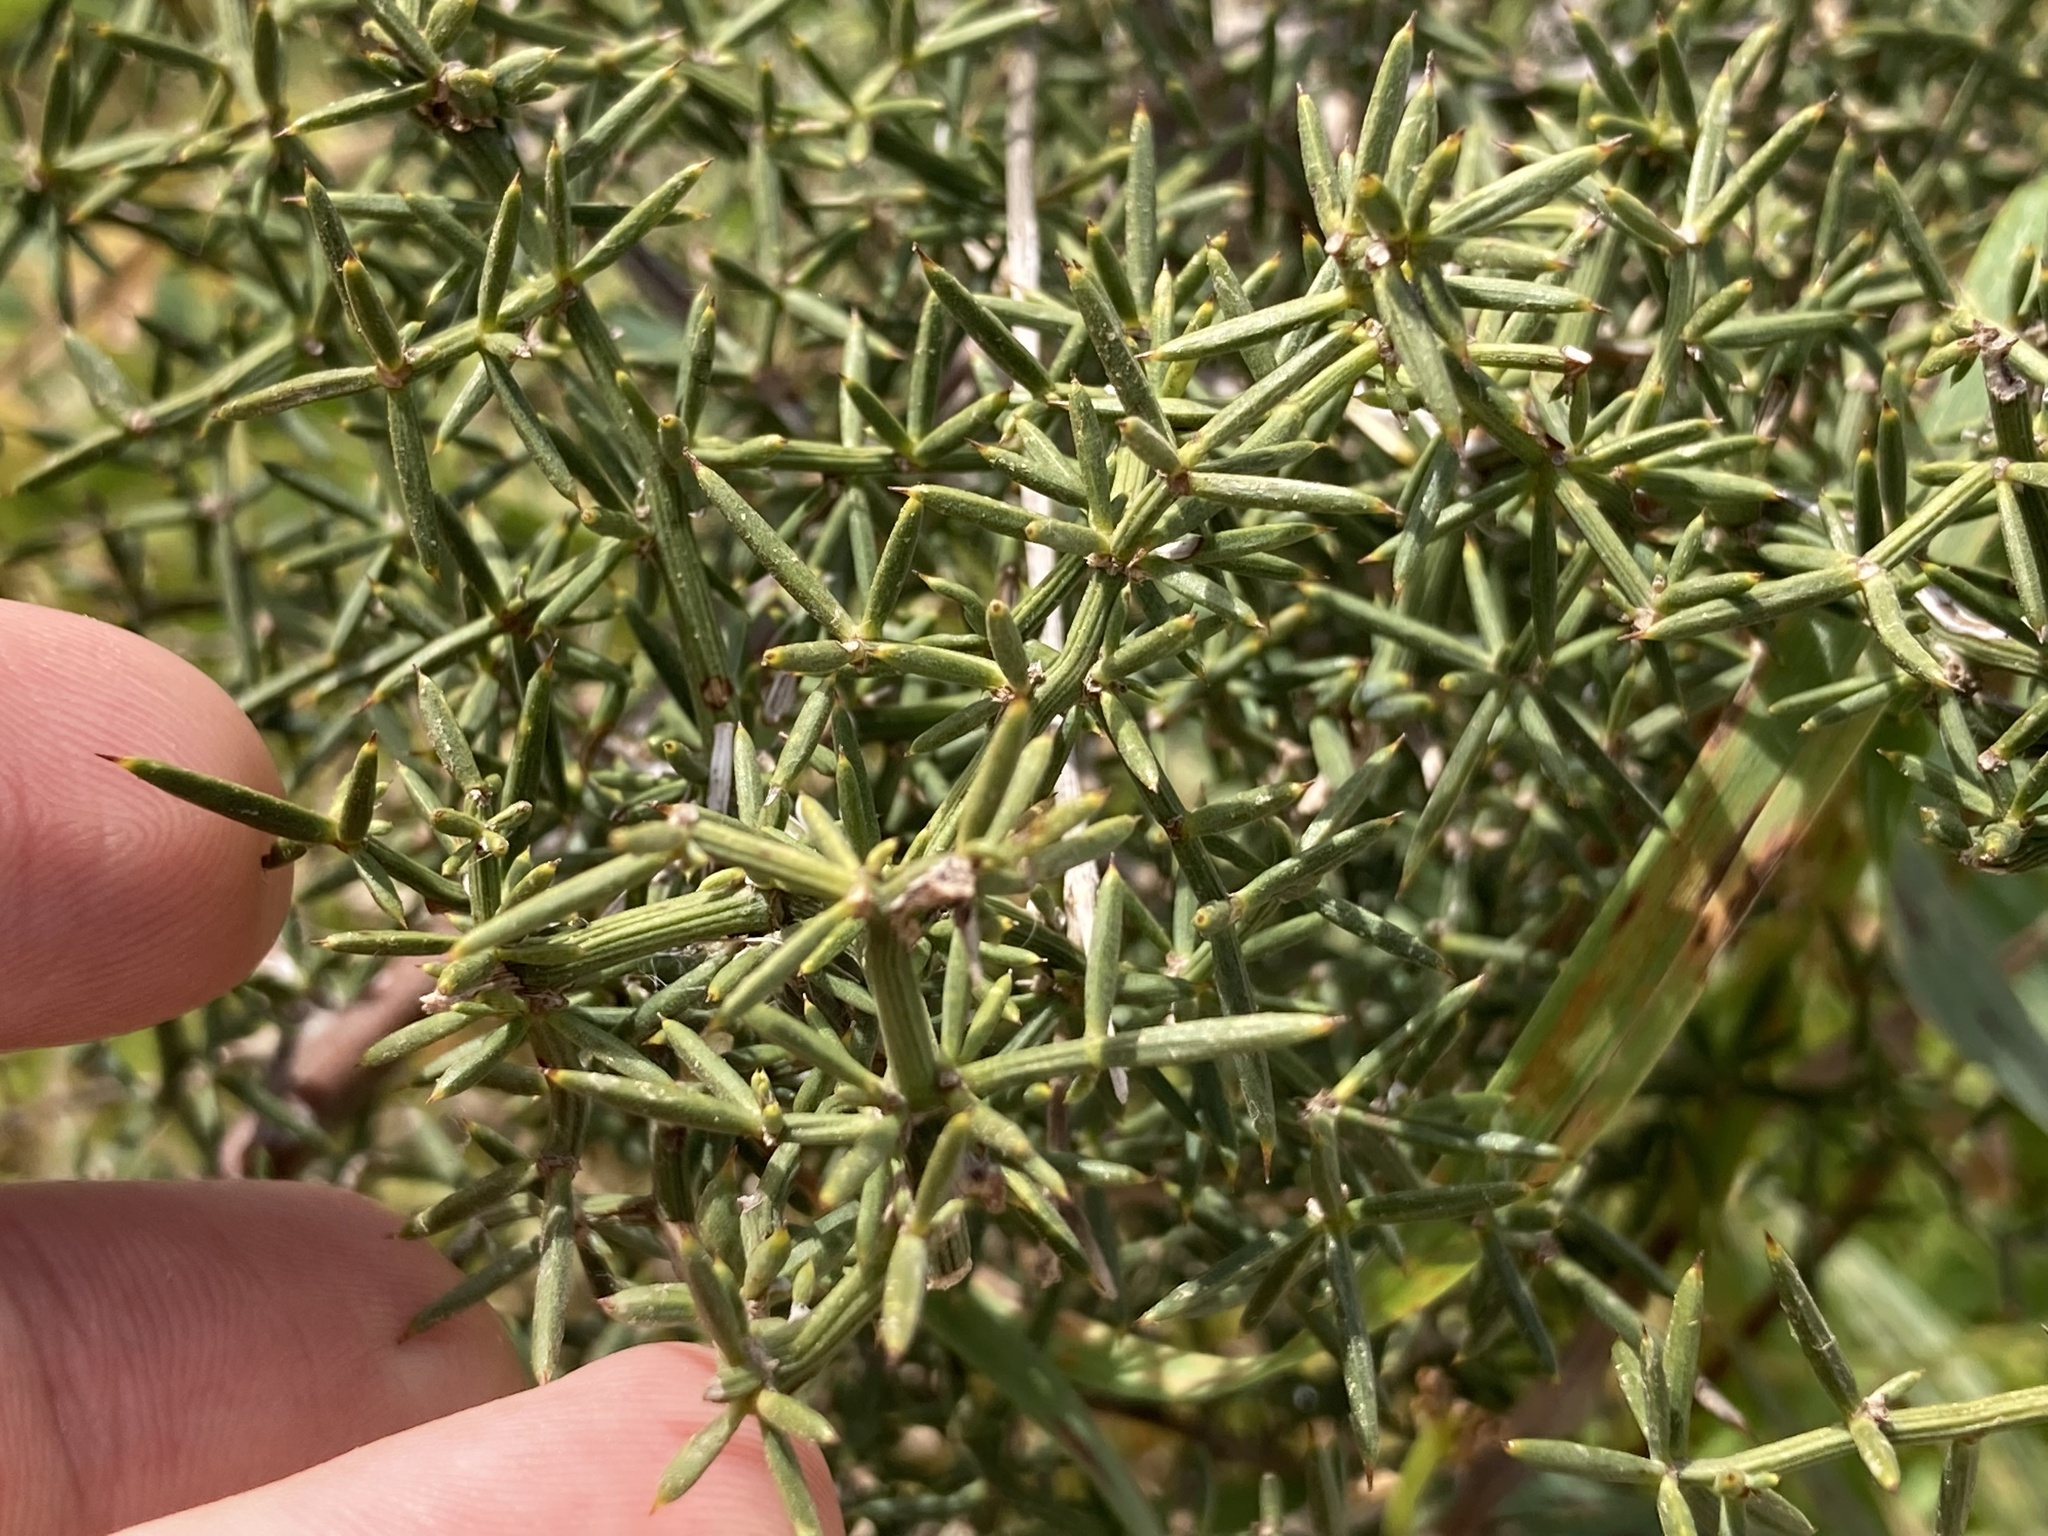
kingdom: Plantae
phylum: Tracheophyta
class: Liliopsida
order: Asparagales
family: Asparagaceae
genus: Asparagus
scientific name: Asparagus aphyllus
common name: Mediterranean asparagus
